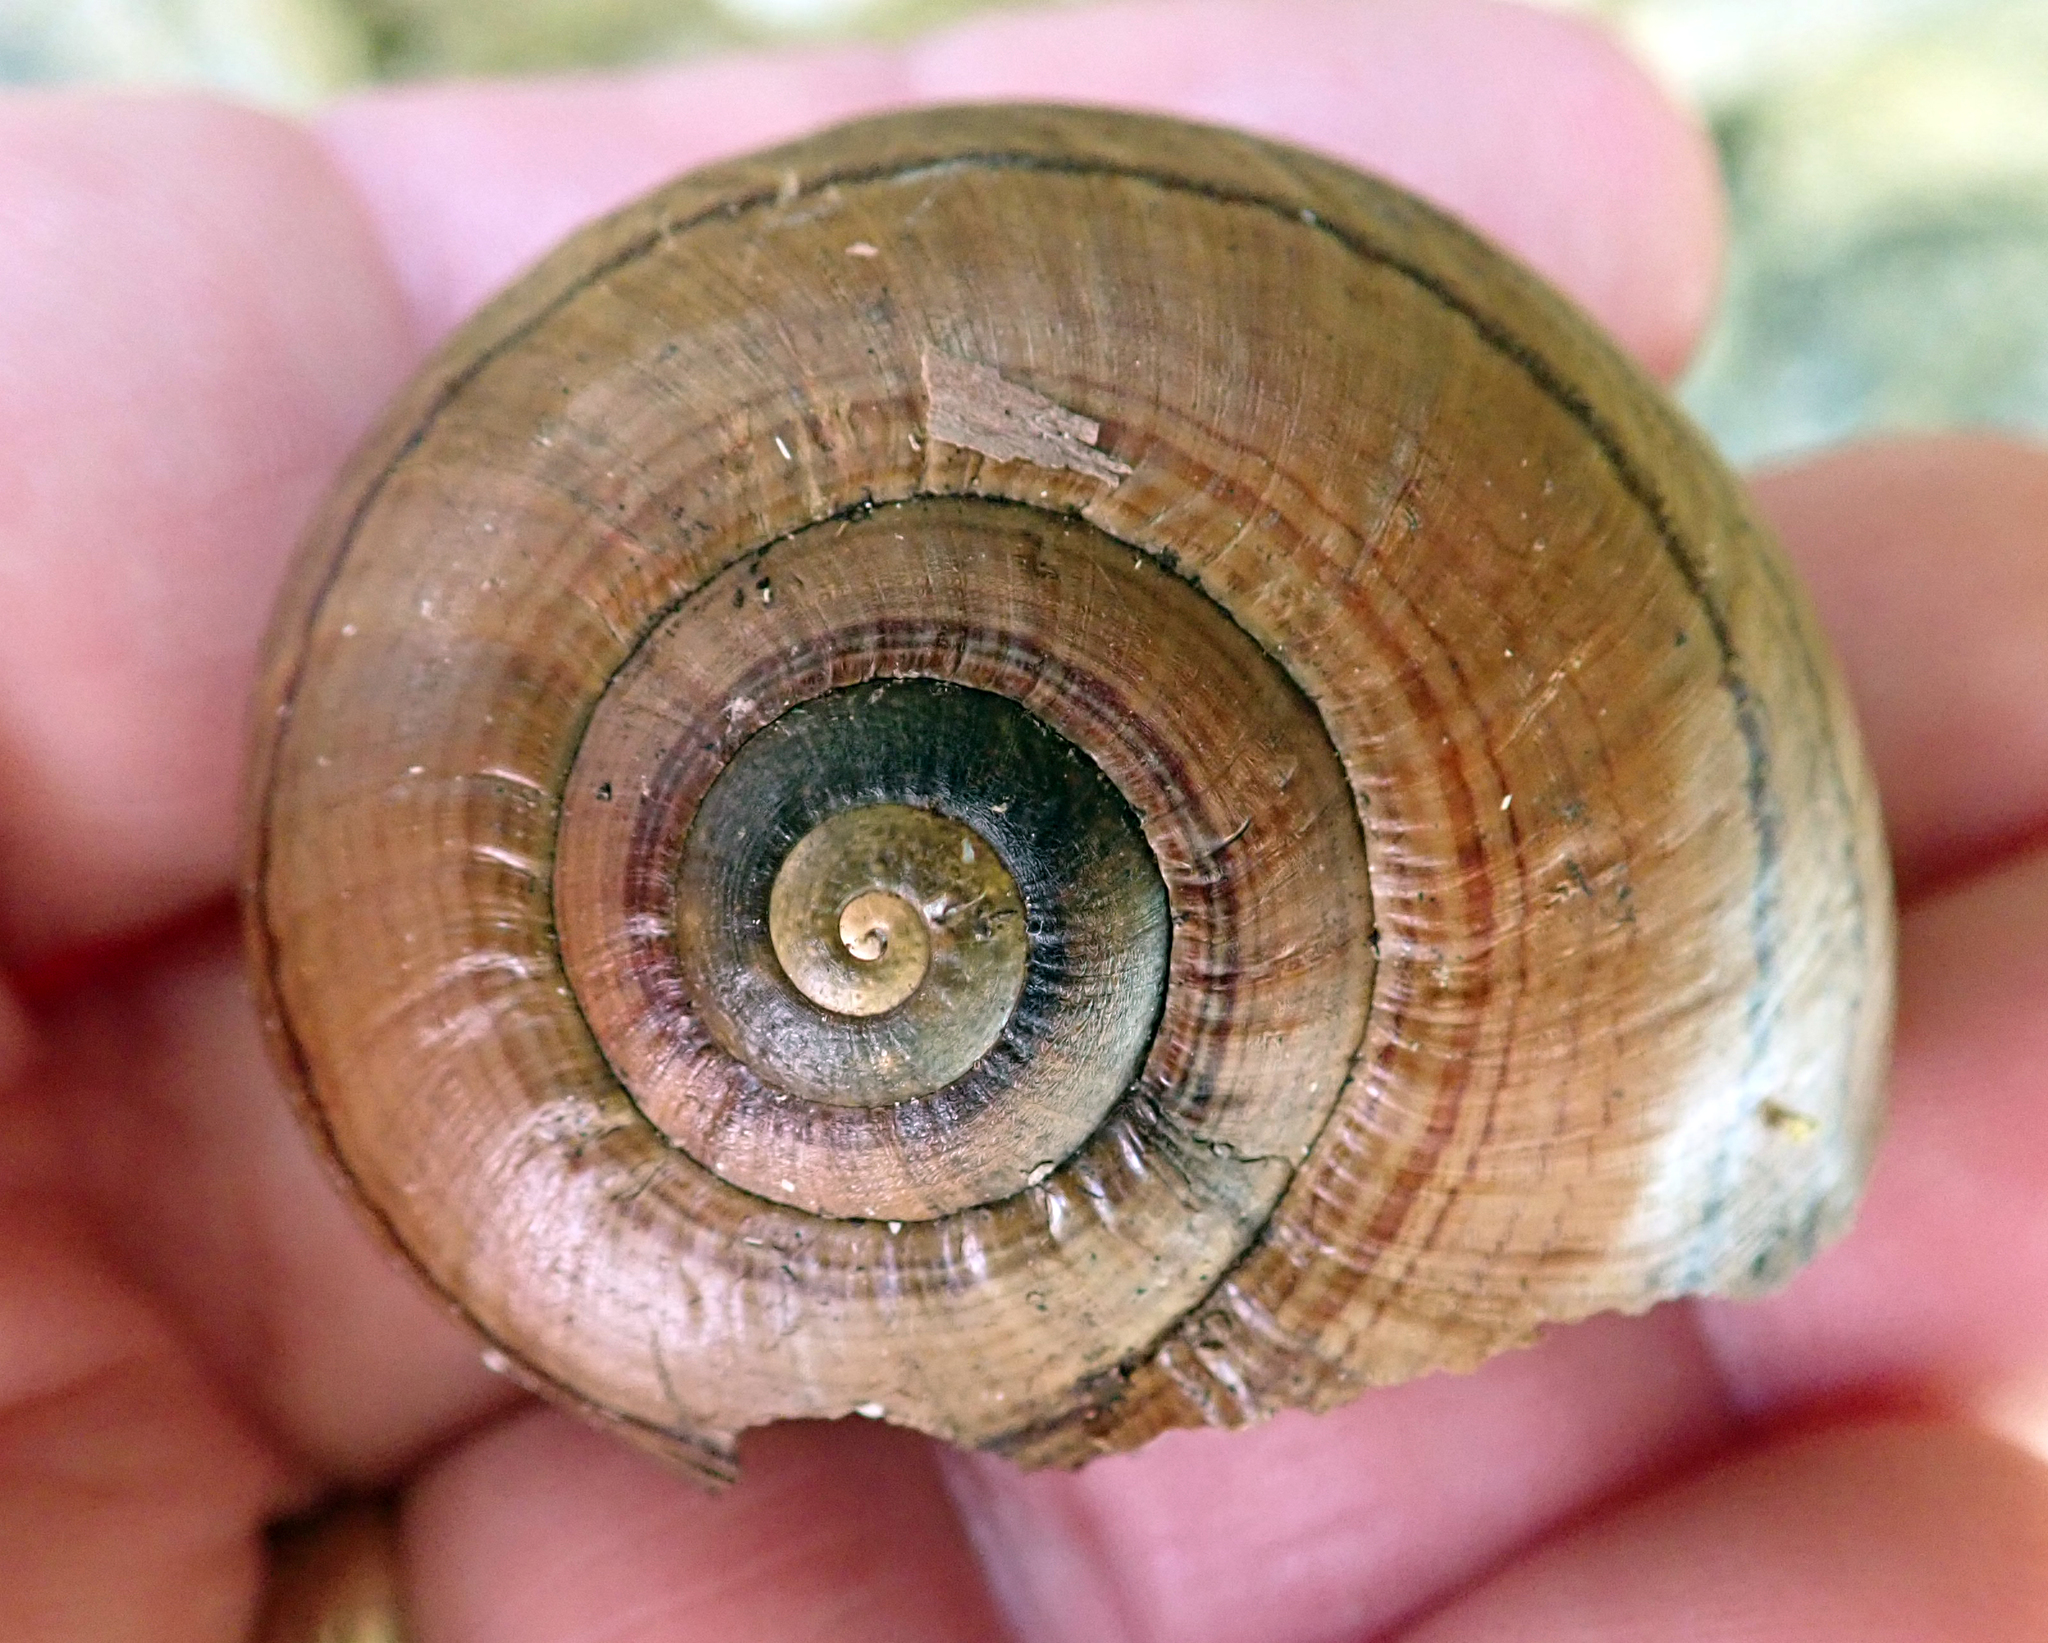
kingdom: Animalia
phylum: Mollusca
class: Gastropoda
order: Stylommatophora
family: Rhytididae
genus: Powelliphanta
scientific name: Powelliphanta hochstetteri
